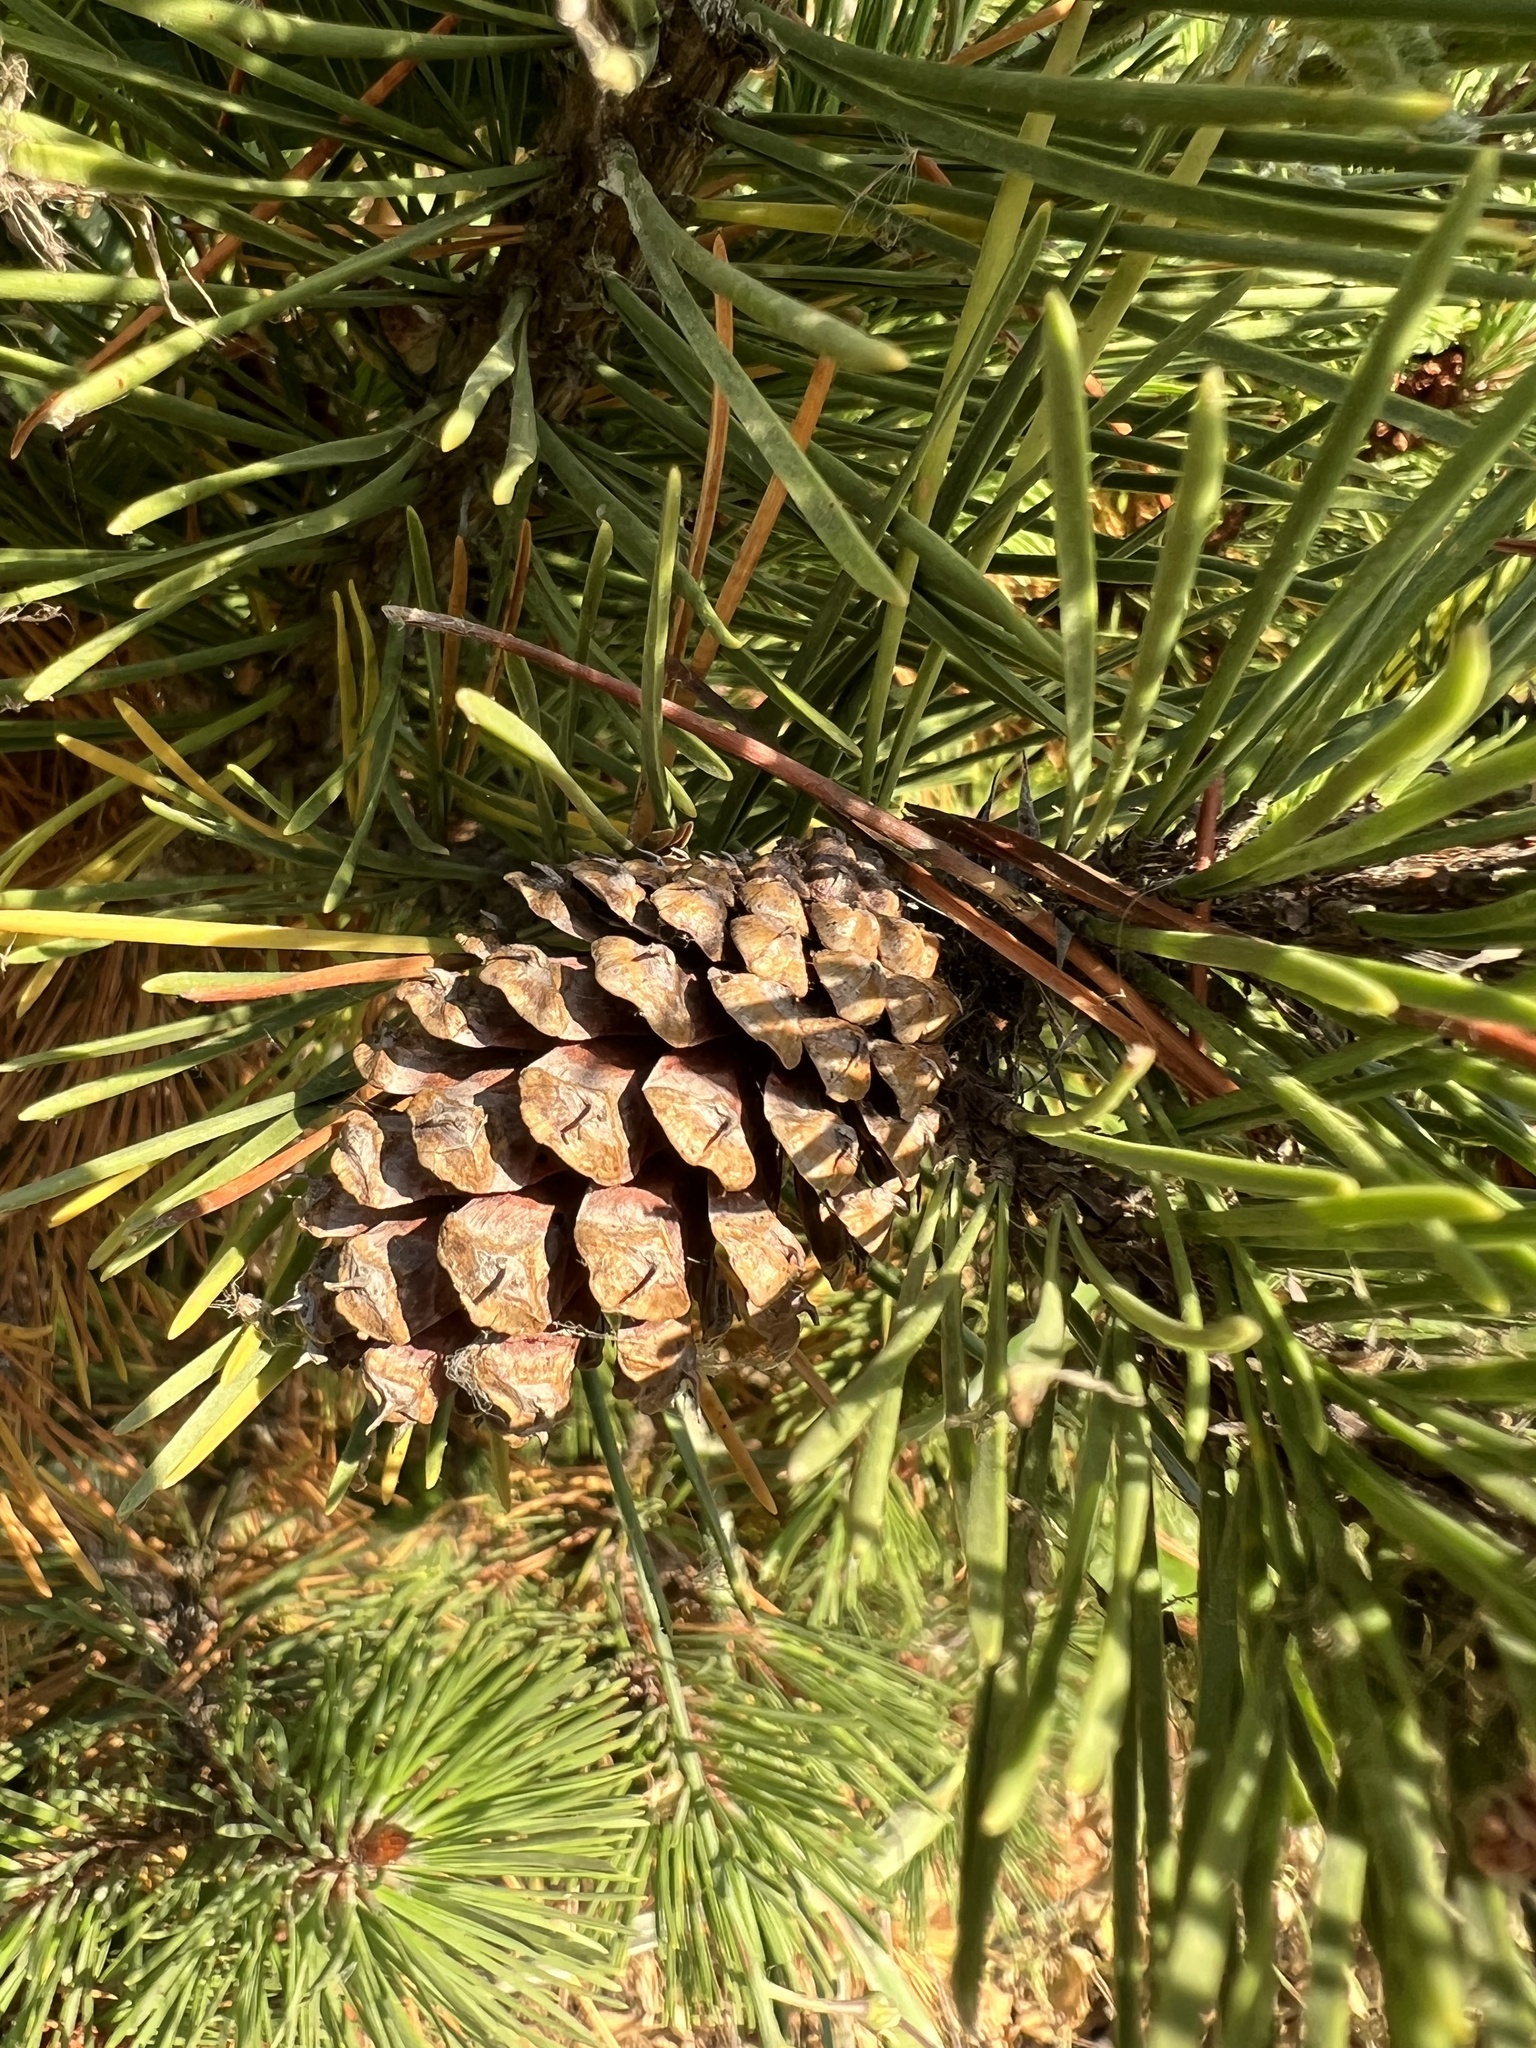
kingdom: Plantae
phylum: Tracheophyta
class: Pinopsida
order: Pinales
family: Pinaceae
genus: Pinus
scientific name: Pinus contorta
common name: Lodgepole pine
